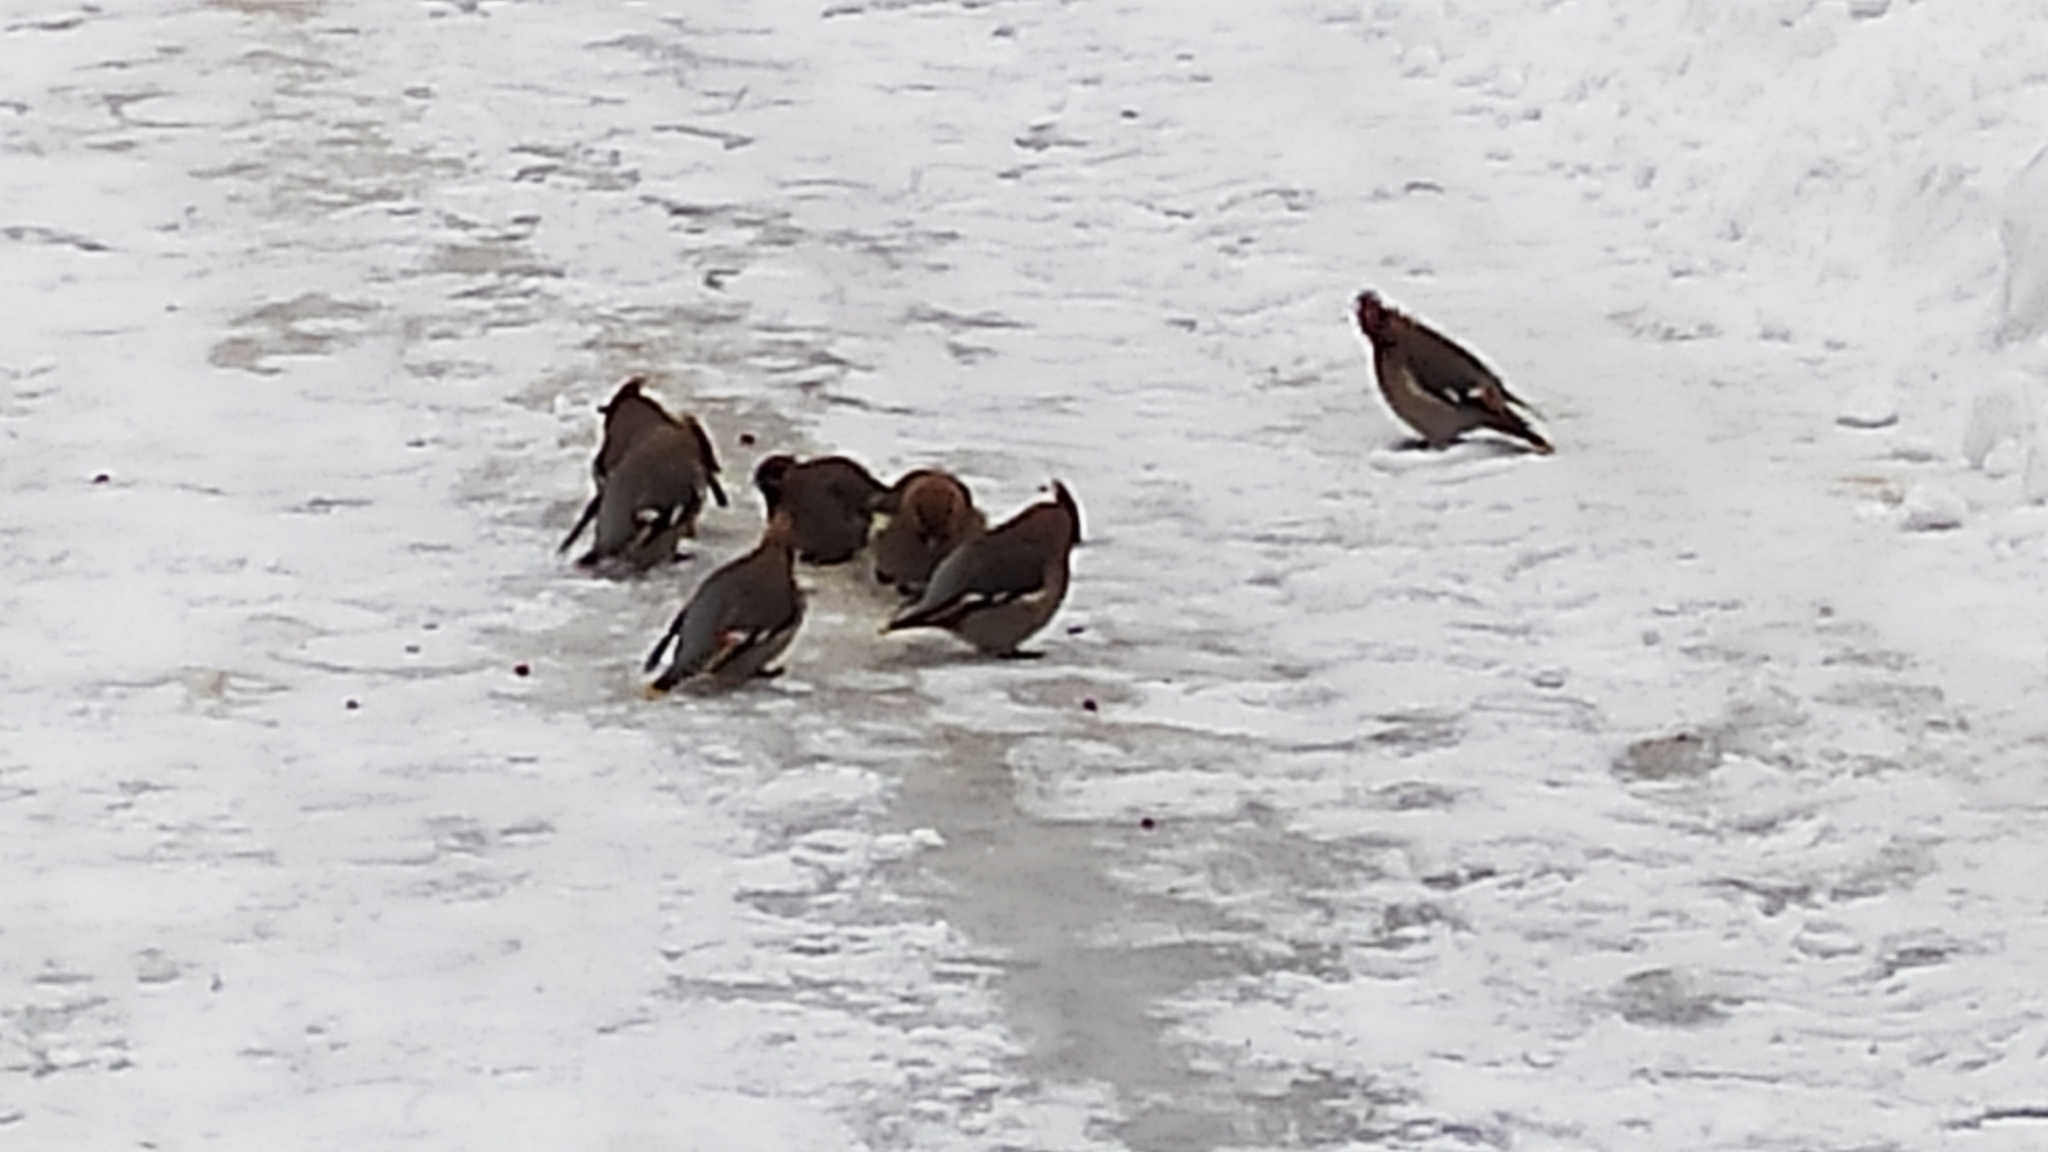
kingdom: Animalia
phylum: Chordata
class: Aves
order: Passeriformes
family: Bombycillidae
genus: Bombycilla
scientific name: Bombycilla garrulus
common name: Bohemian waxwing
